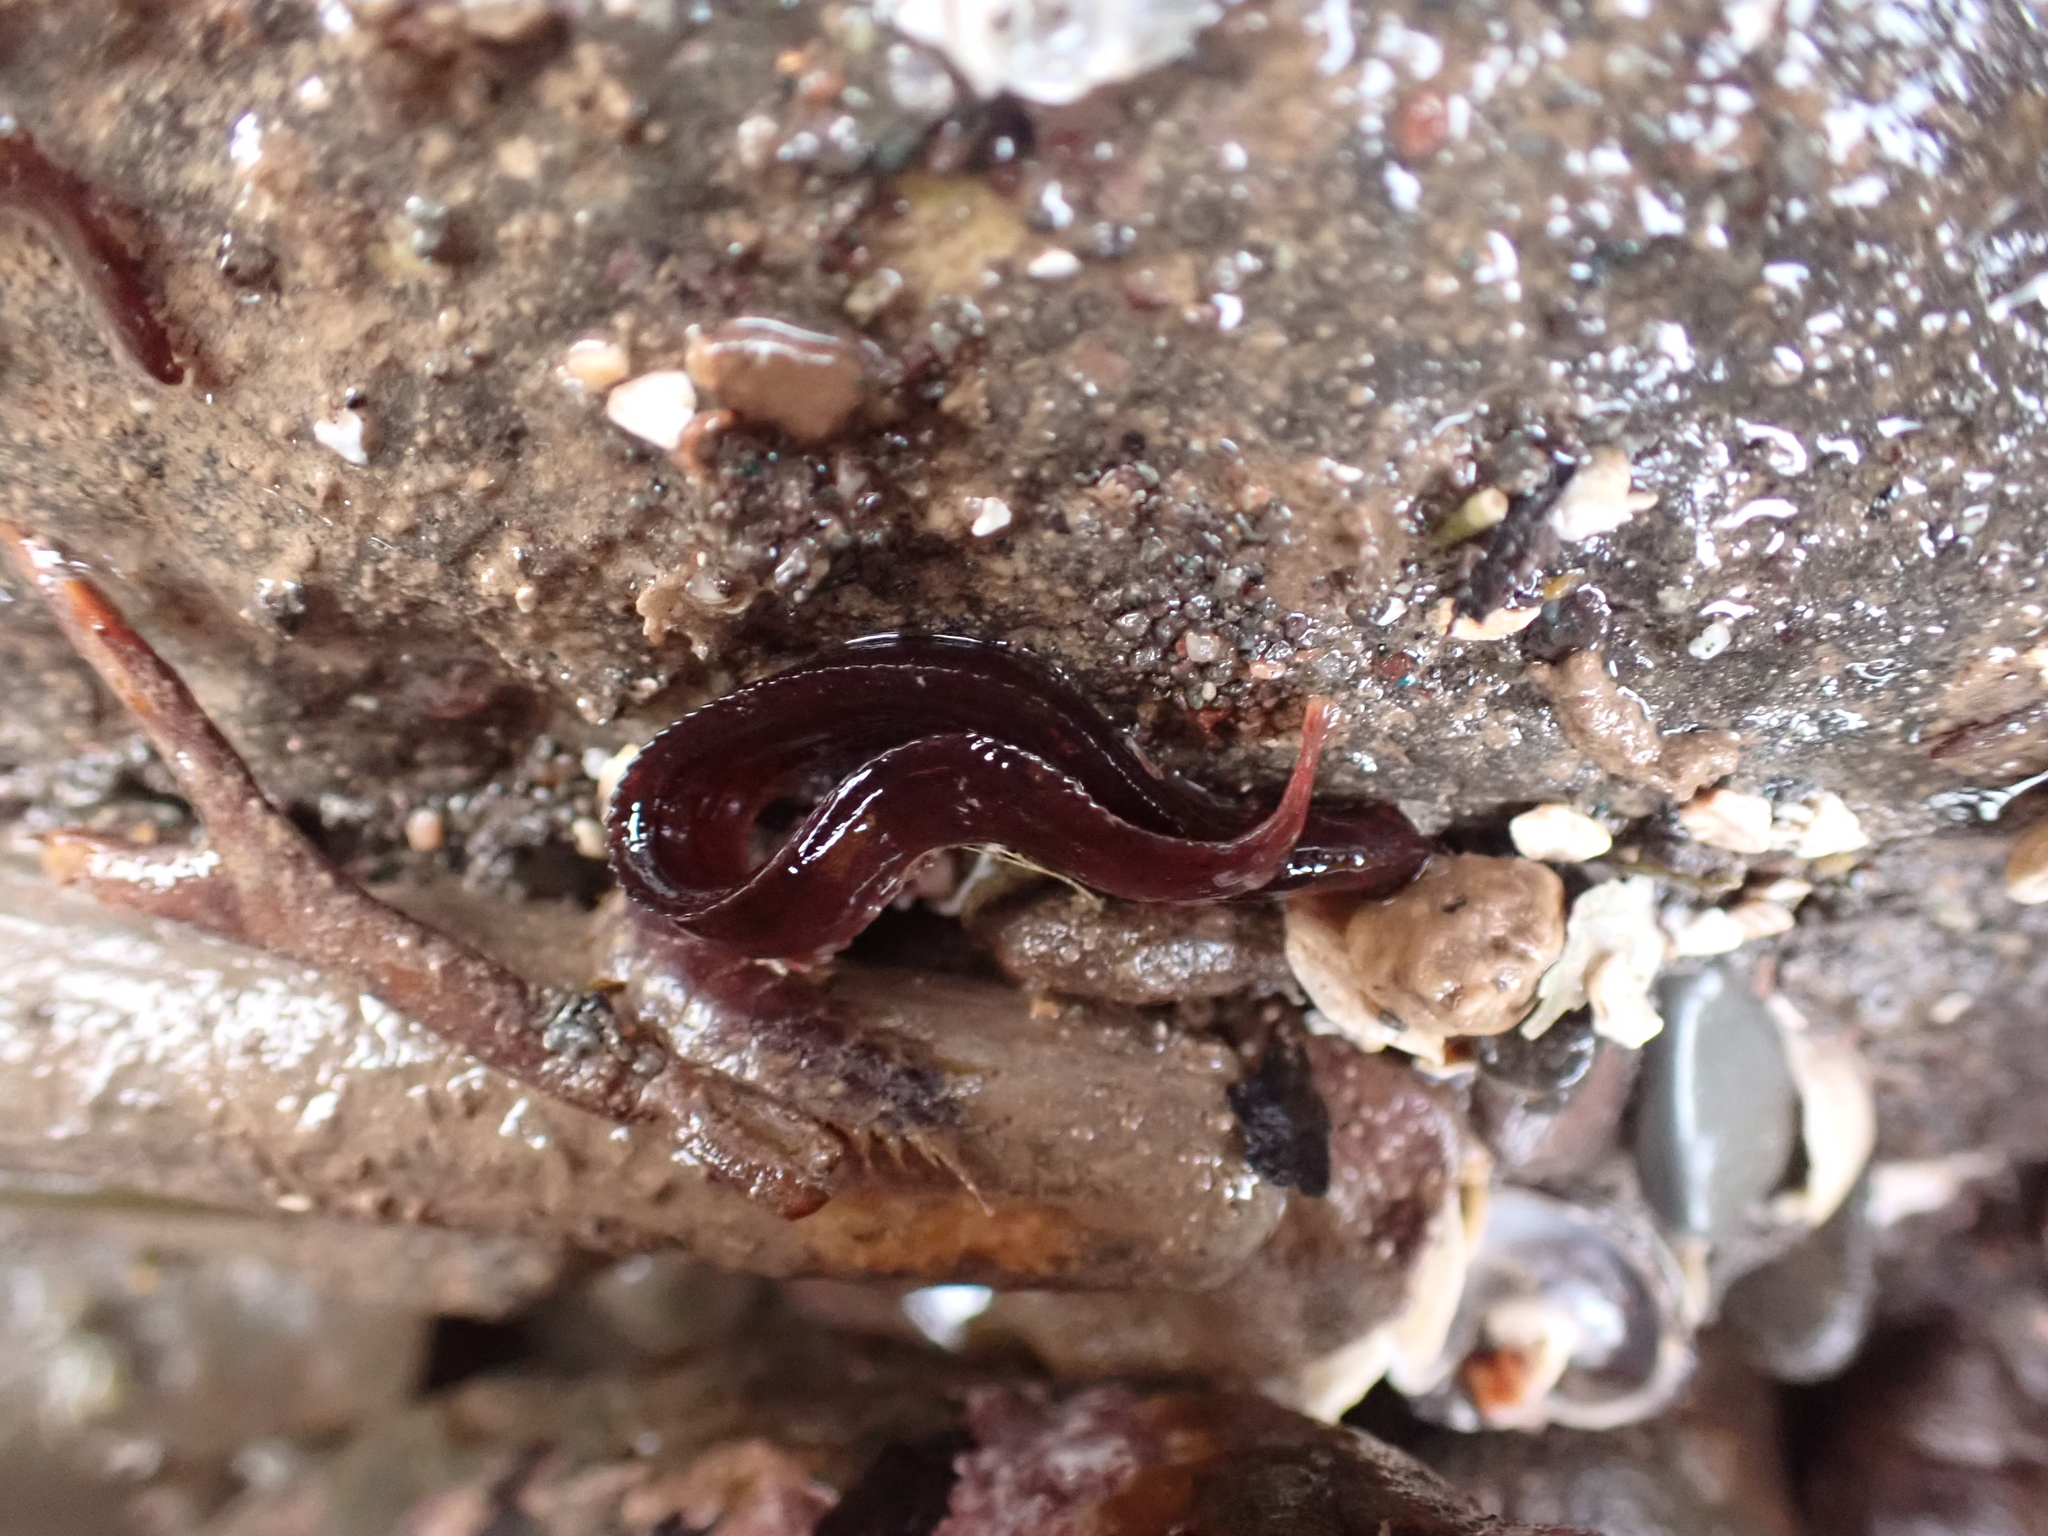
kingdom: Animalia
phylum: Chordata
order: Perciformes
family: Pholidae
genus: Pholis
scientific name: Pholis gunnellus
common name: Butterfish
